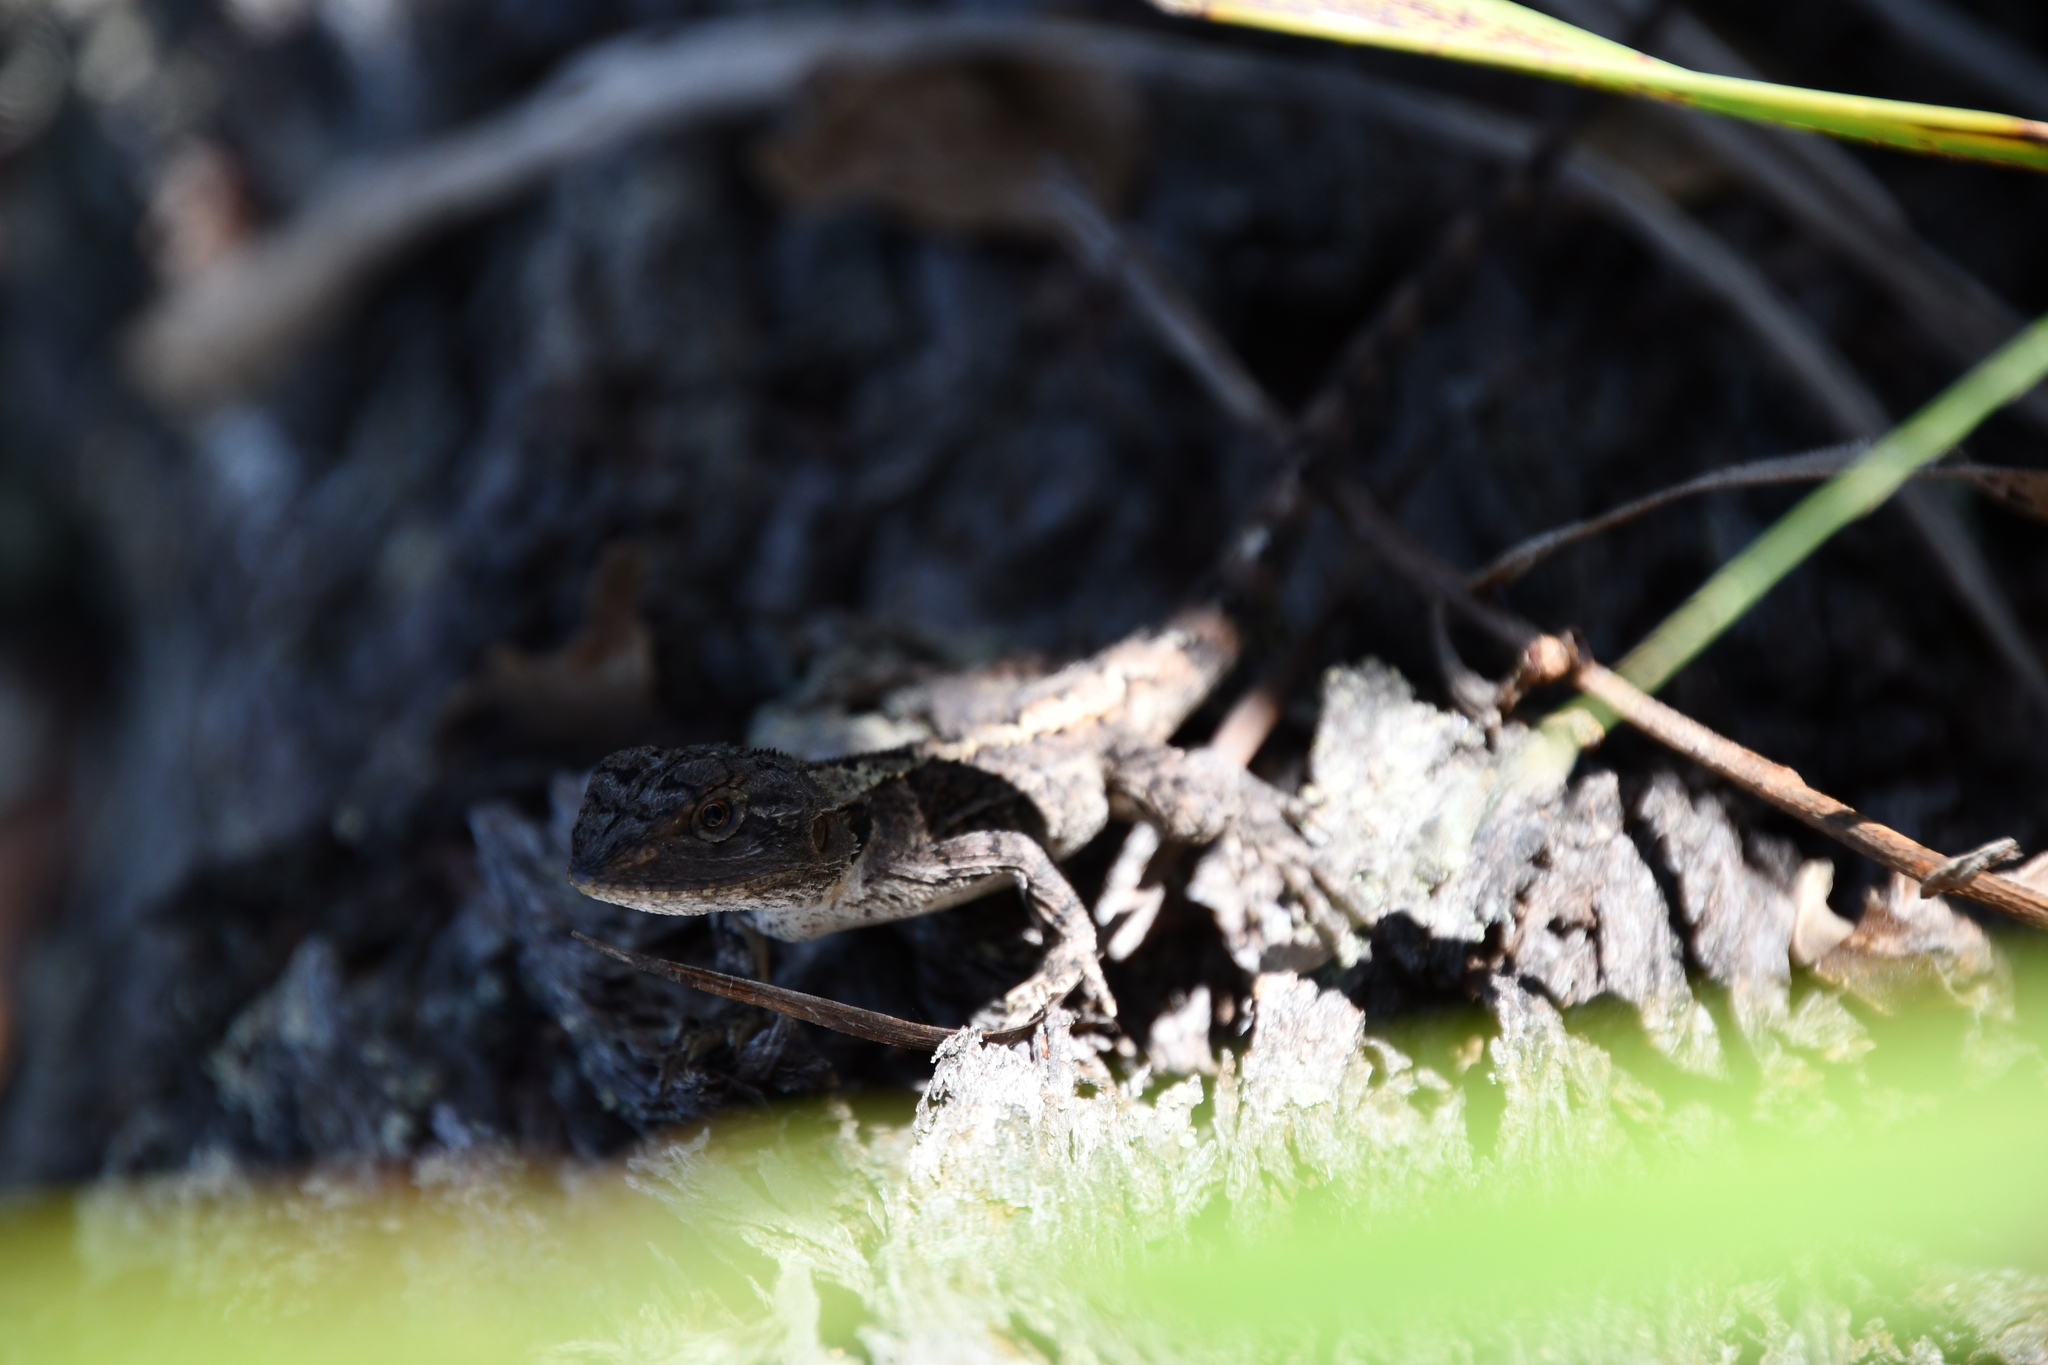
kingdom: Animalia
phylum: Chordata
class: Squamata
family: Agamidae
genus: Amphibolurus
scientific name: Amphibolurus muricatus
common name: Jacky lizard
